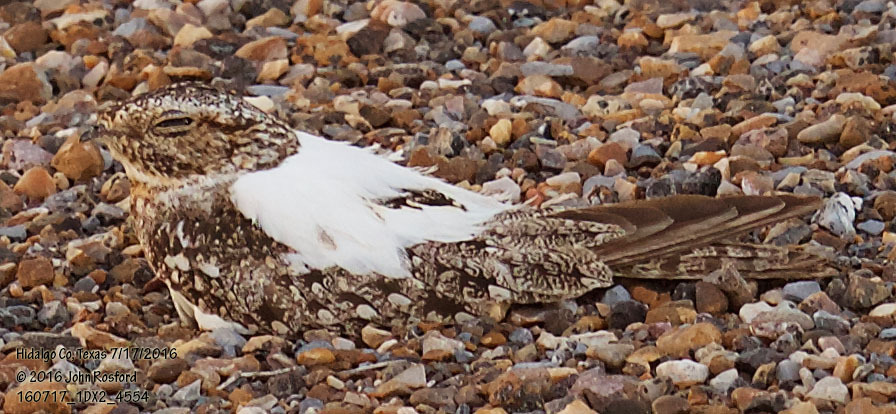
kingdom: Animalia
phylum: Chordata
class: Aves
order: Caprimulgiformes
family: Caprimulgidae
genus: Chordeiles
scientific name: Chordeiles acutipennis
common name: Lesser nighthawk
